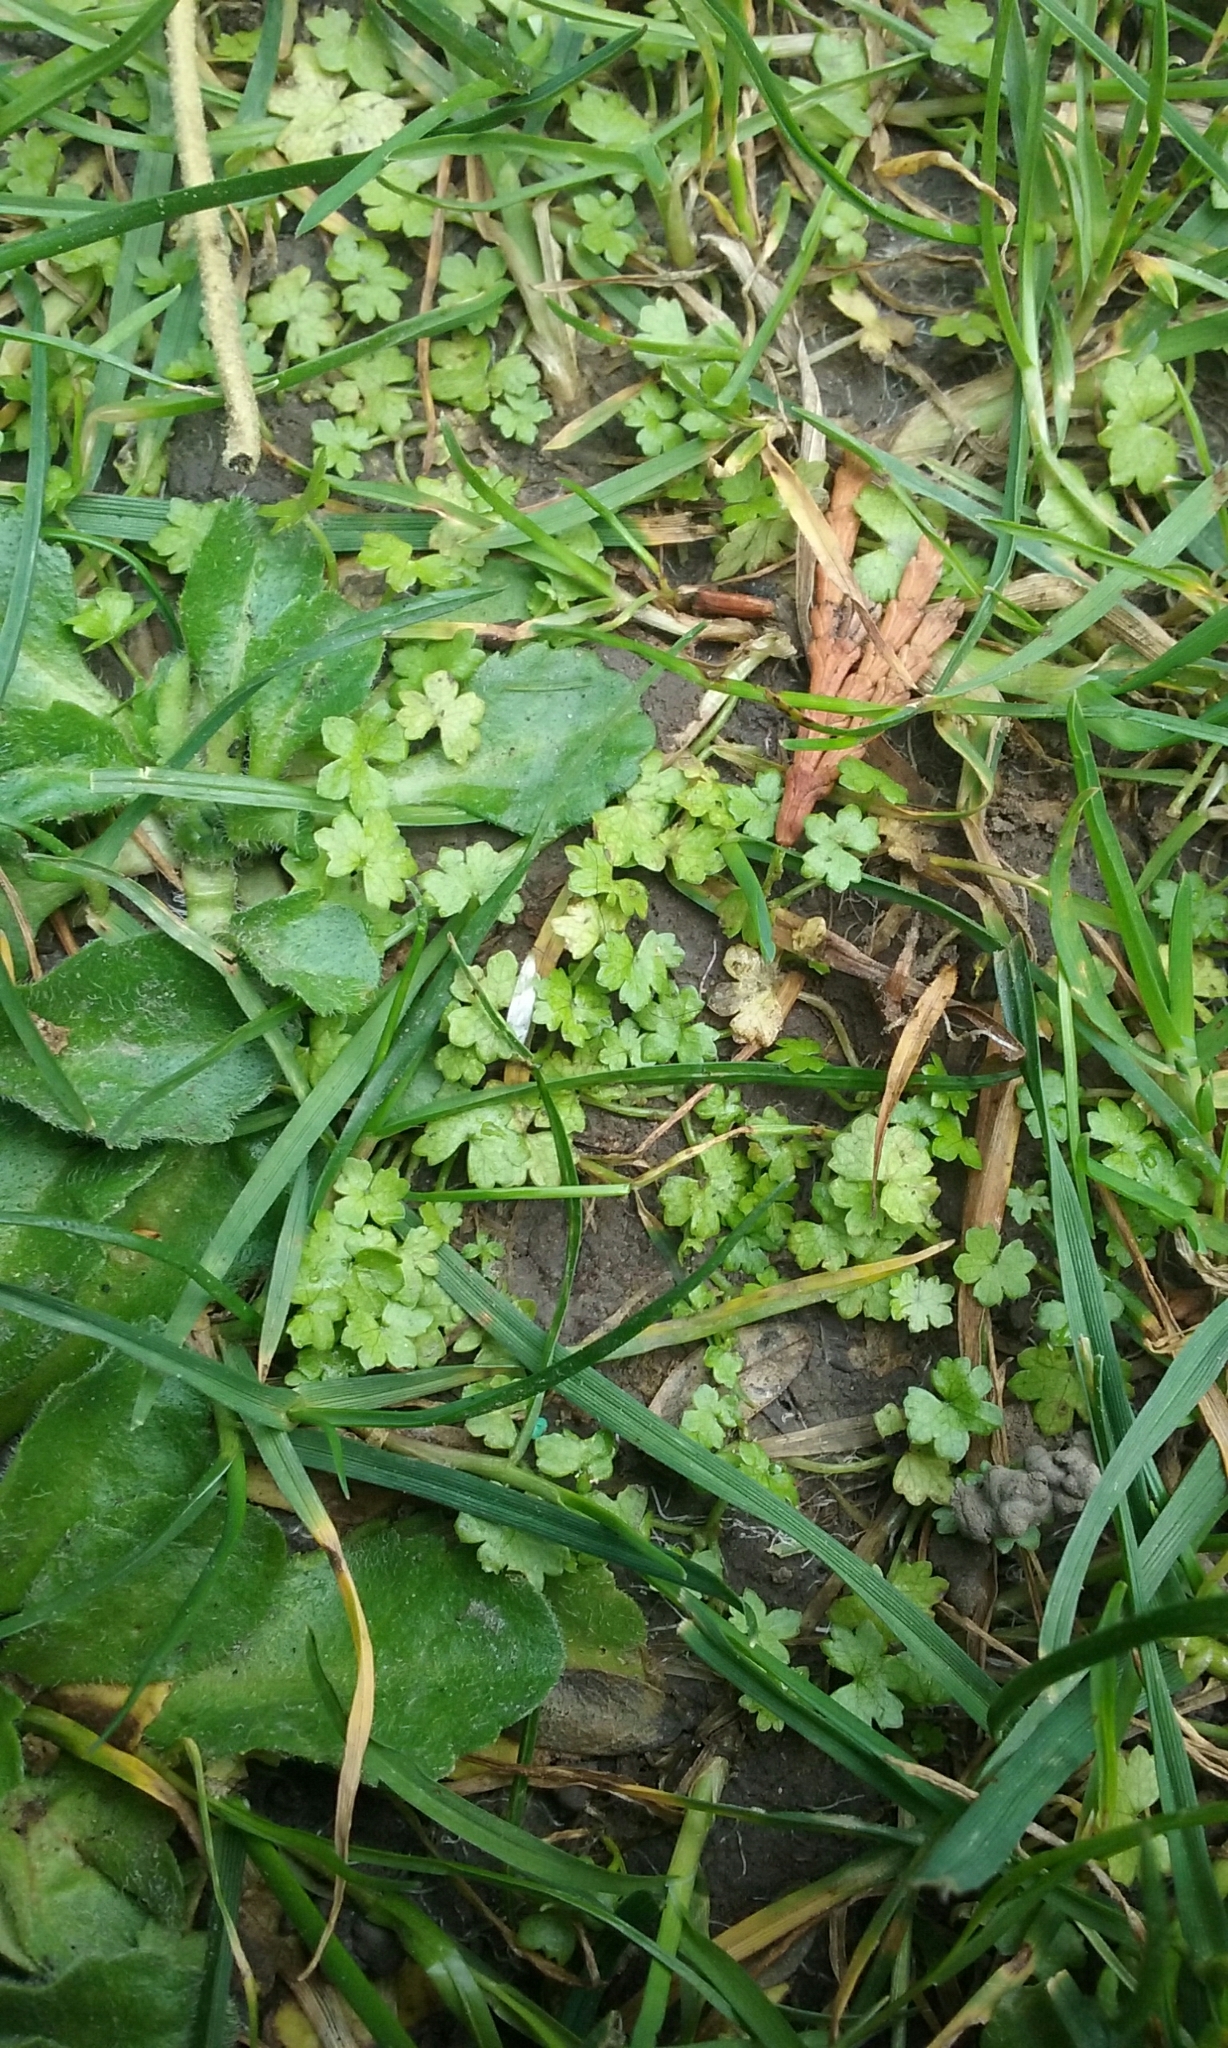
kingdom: Plantae
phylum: Tracheophyta
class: Magnoliopsida
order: Apiales
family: Araliaceae
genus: Hydrocotyle
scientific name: Hydrocotyle heteromeria
